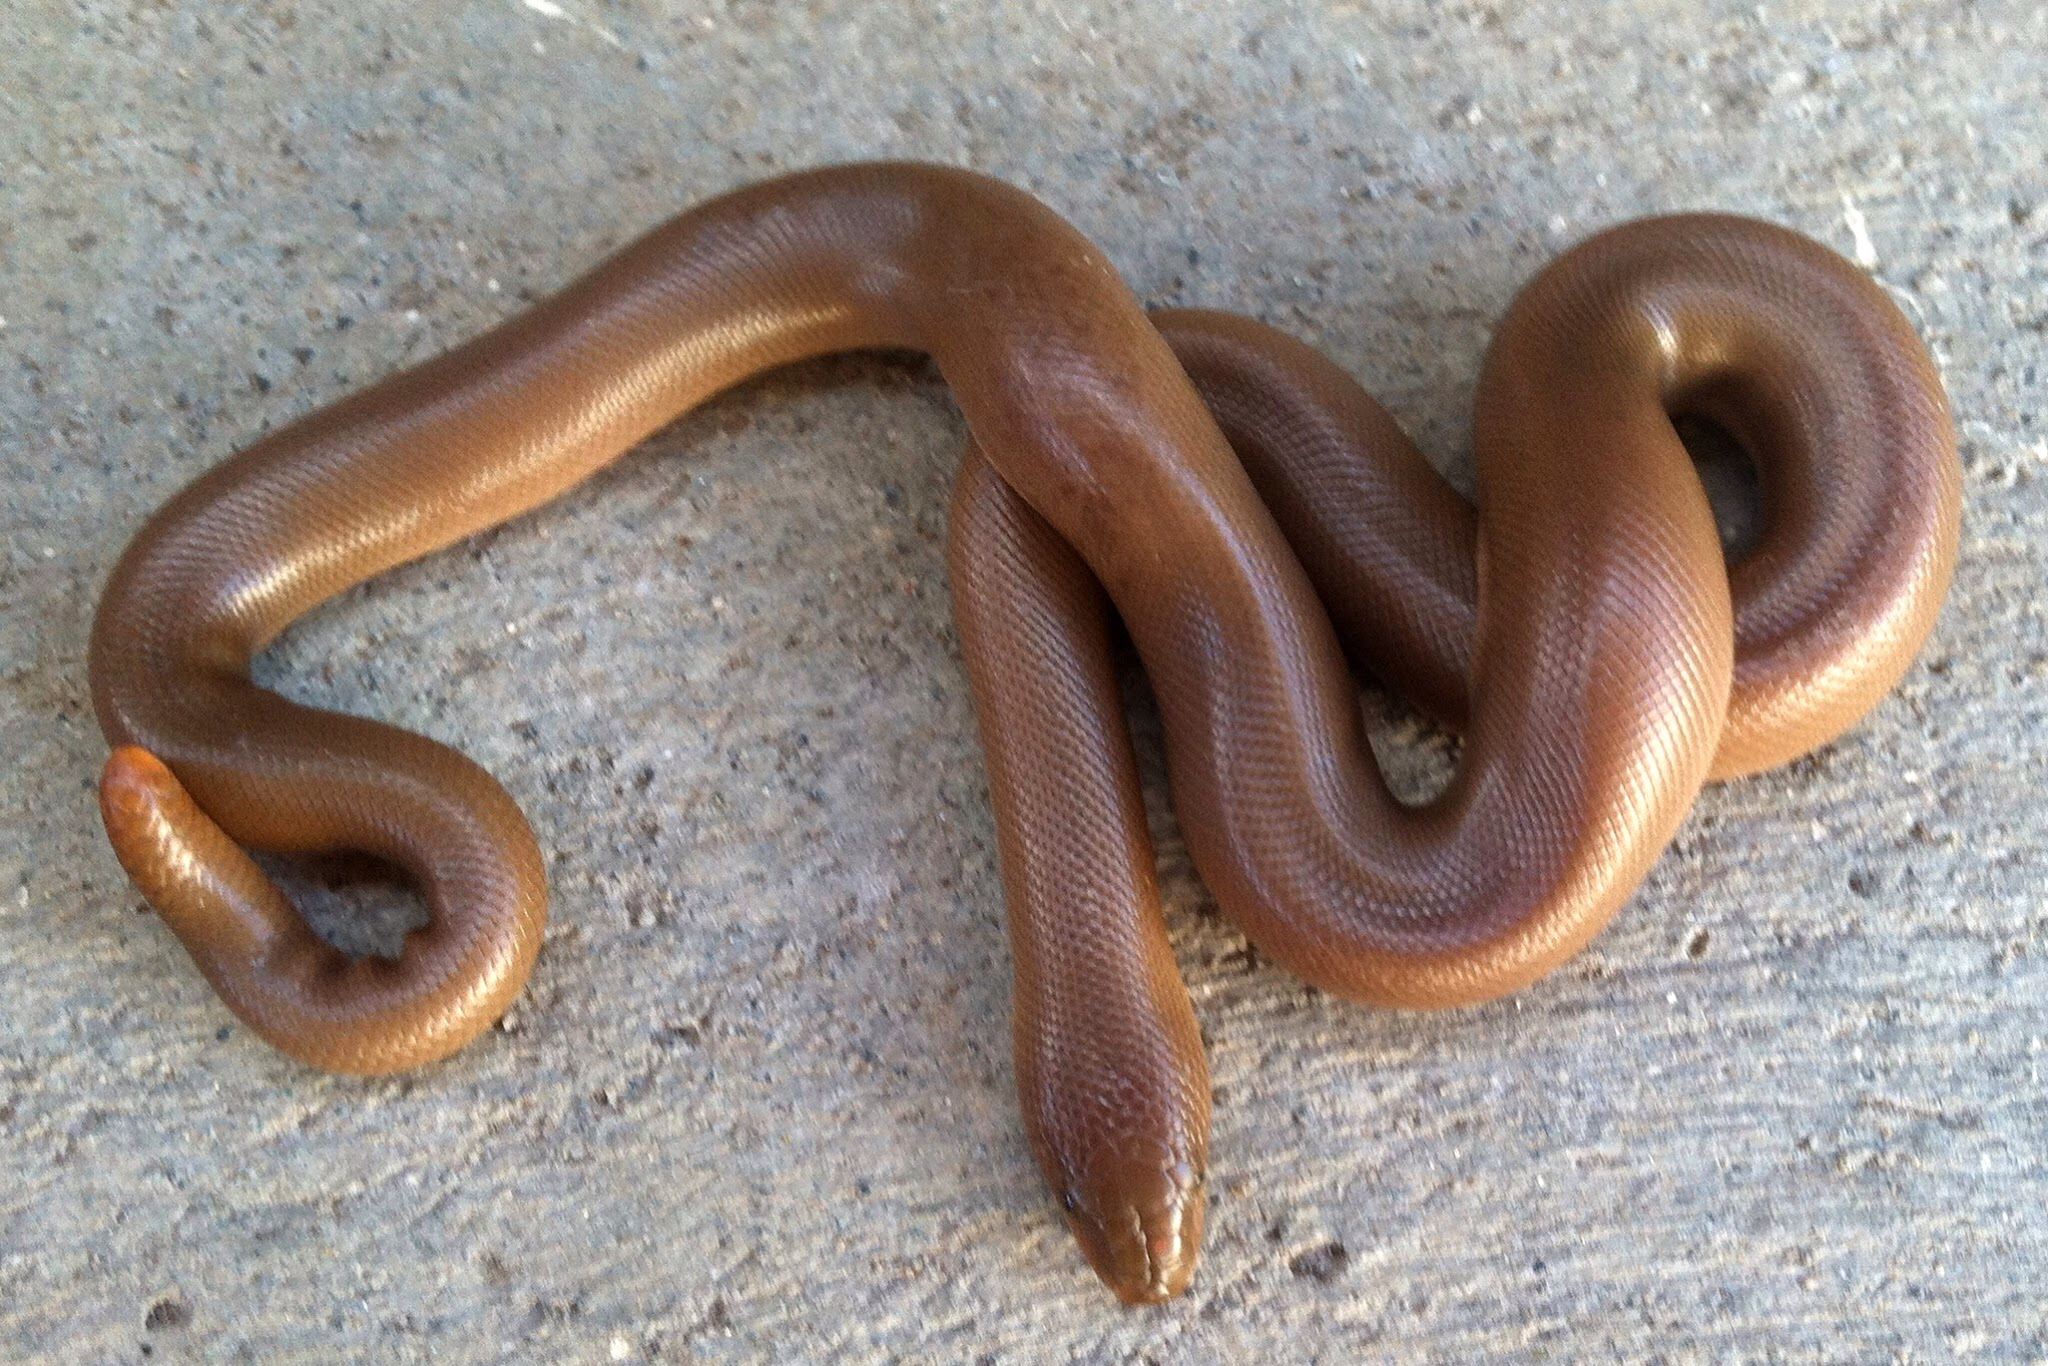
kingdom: Animalia
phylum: Chordata
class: Squamata
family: Boidae
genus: Charina
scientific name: Charina bottae
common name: Northern rubber boa
